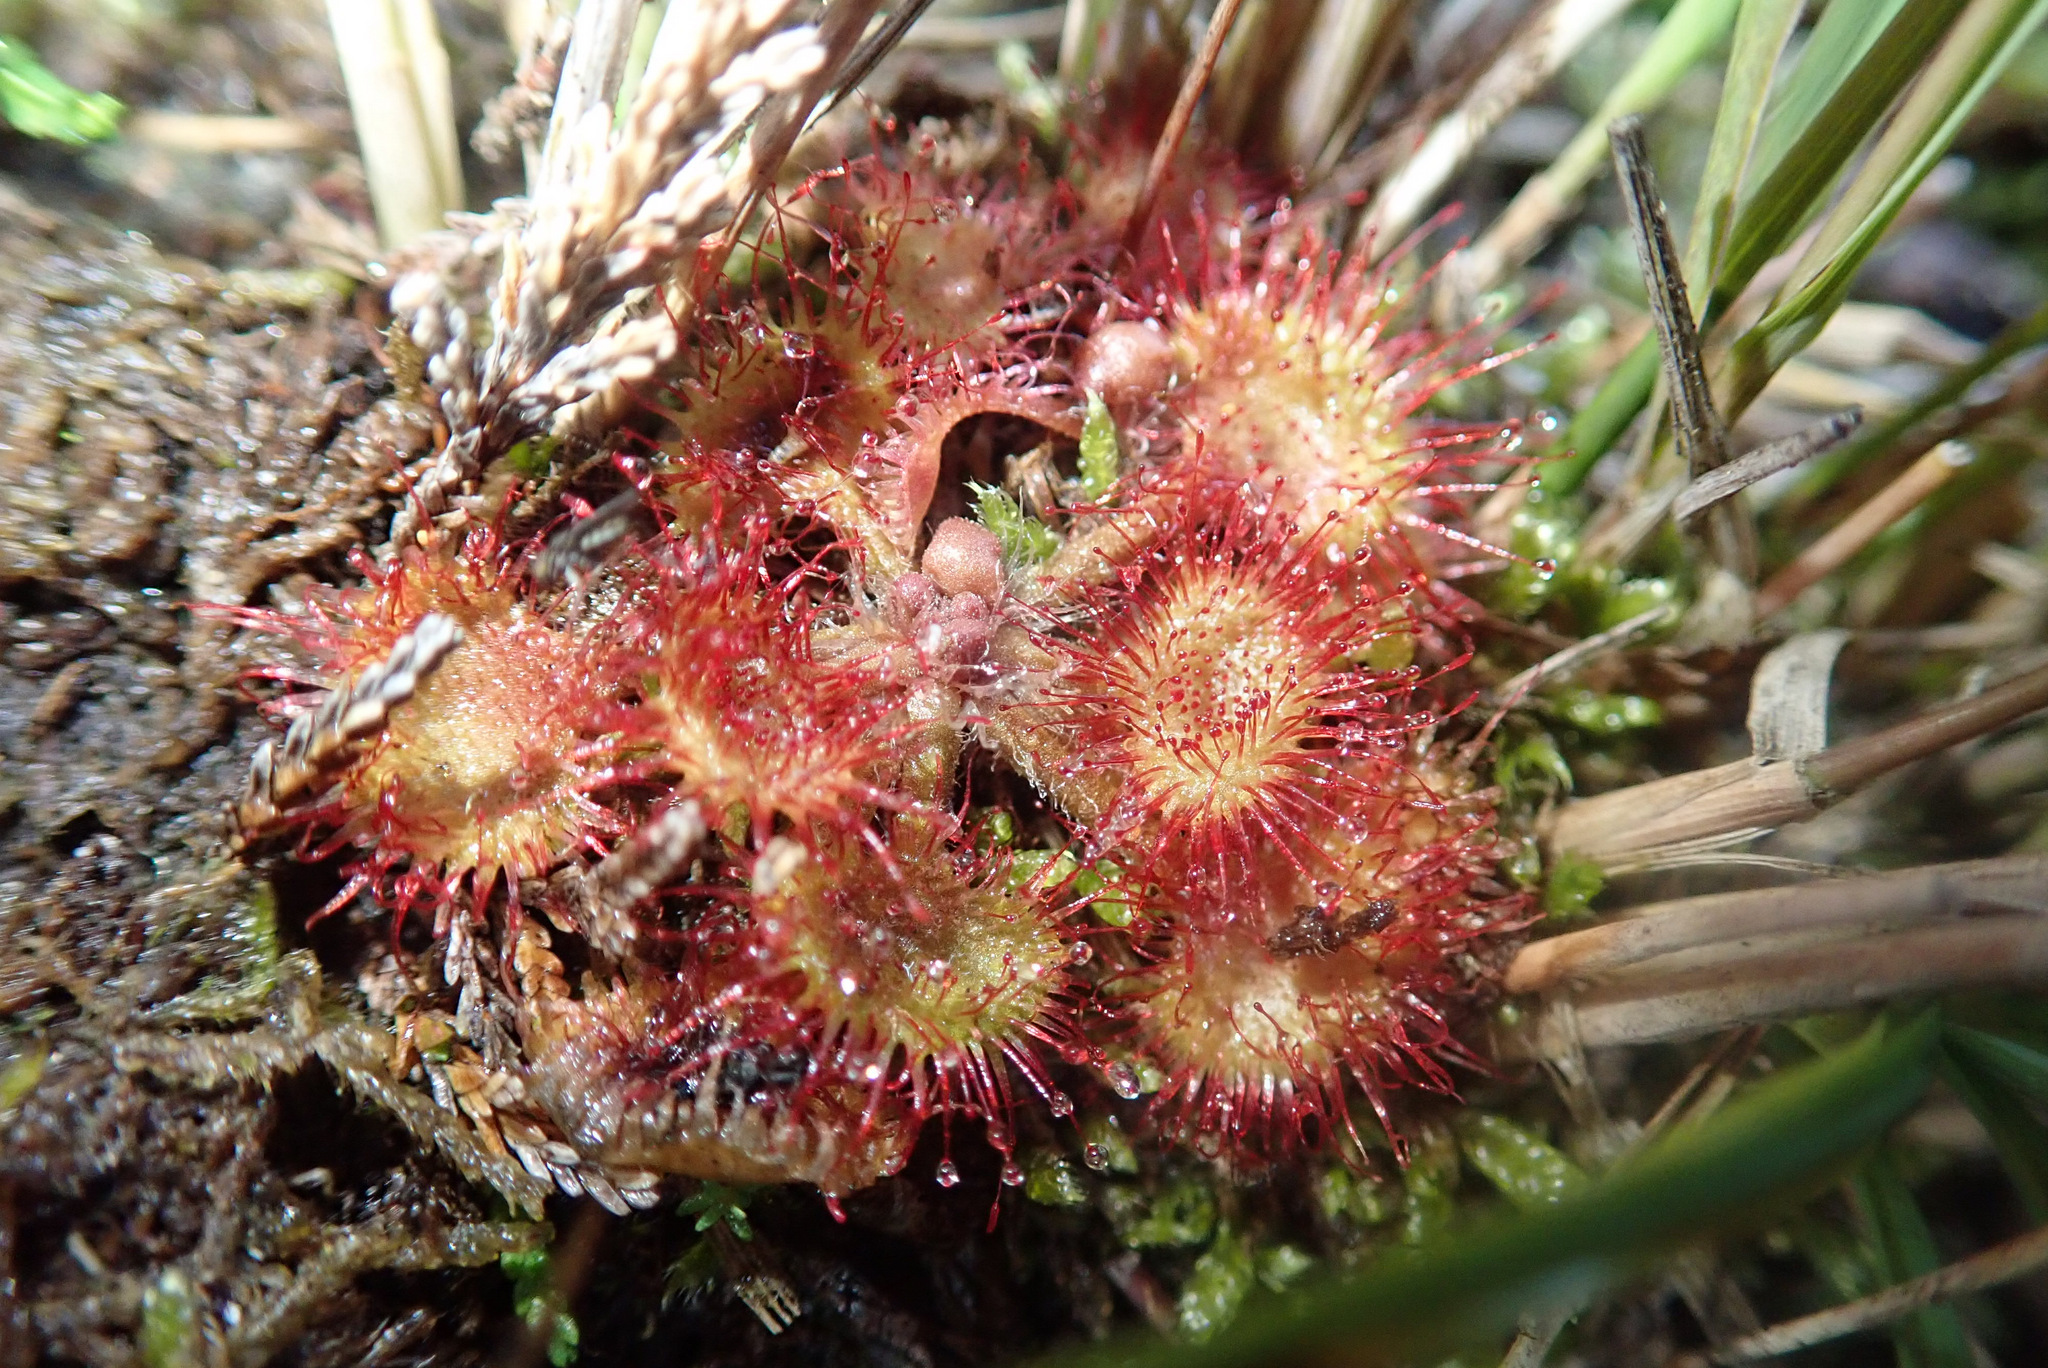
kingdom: Plantae
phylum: Tracheophyta
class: Magnoliopsida
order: Caryophyllales
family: Droseraceae
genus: Drosera
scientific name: Drosera rotundifolia
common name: Round-leaved sundew
